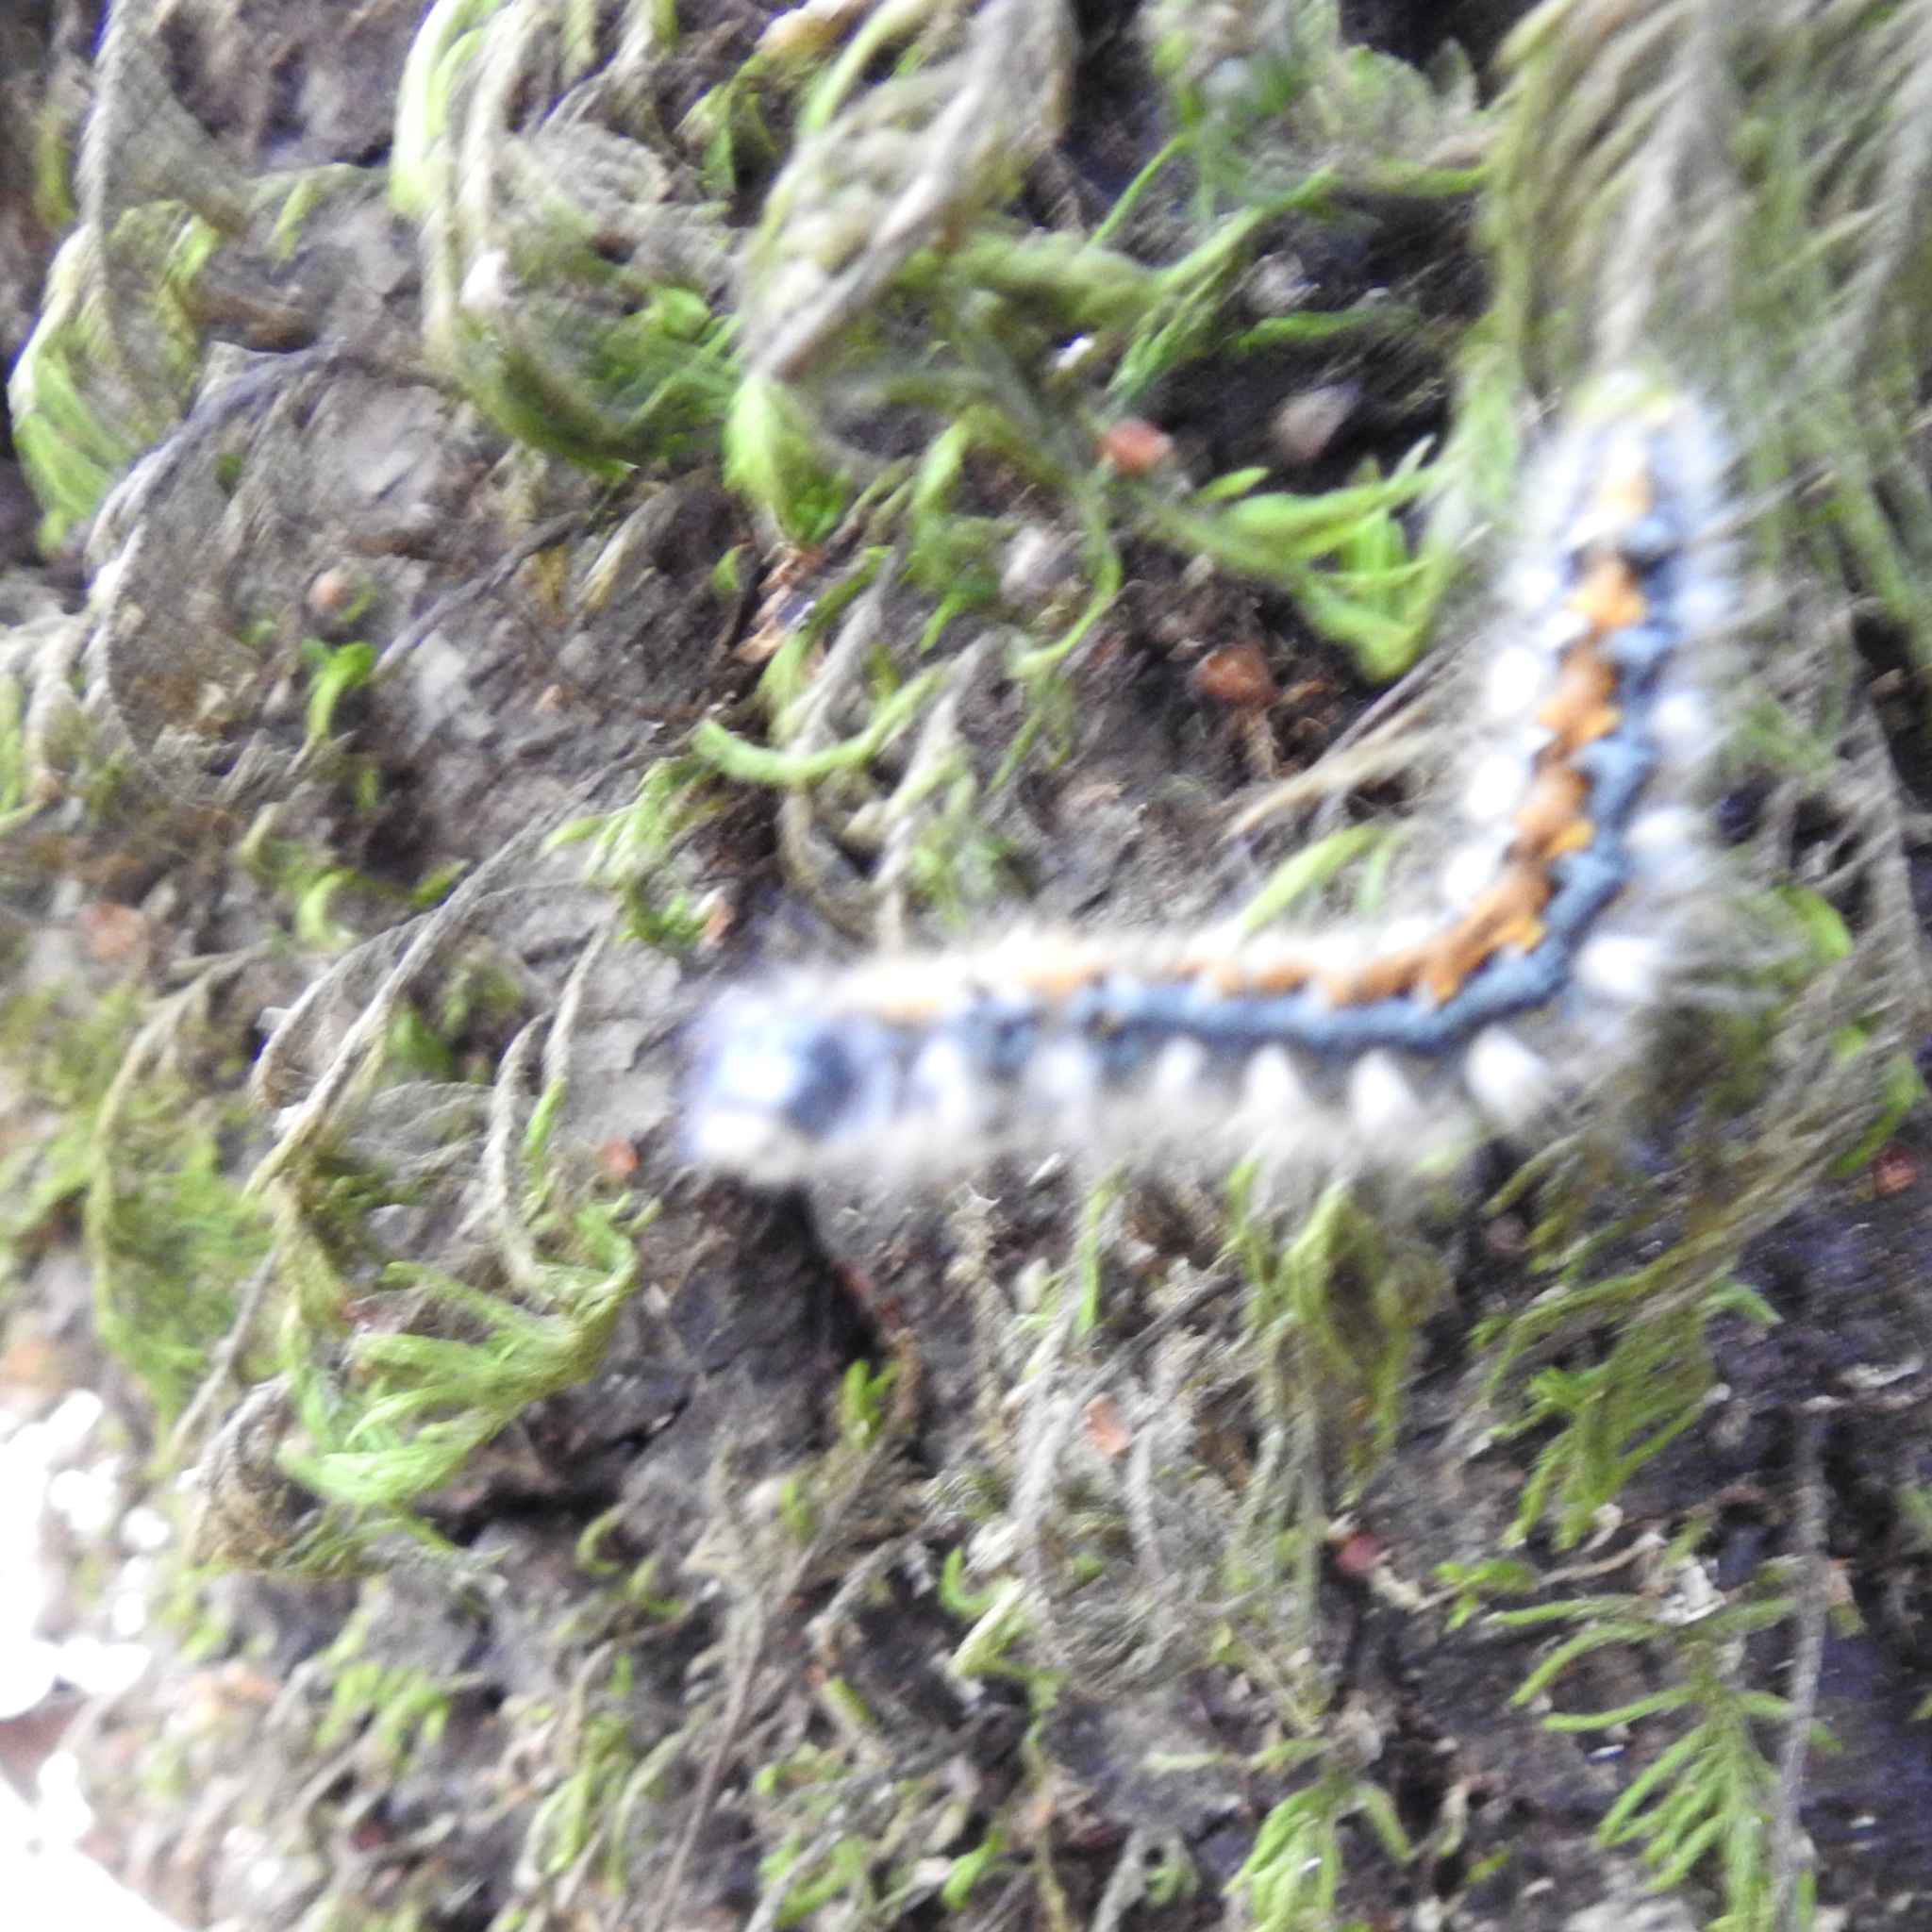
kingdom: Animalia
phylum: Arthropoda
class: Insecta
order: Lepidoptera
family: Lasiocampidae
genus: Malacosoma
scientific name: Malacosoma constricta
